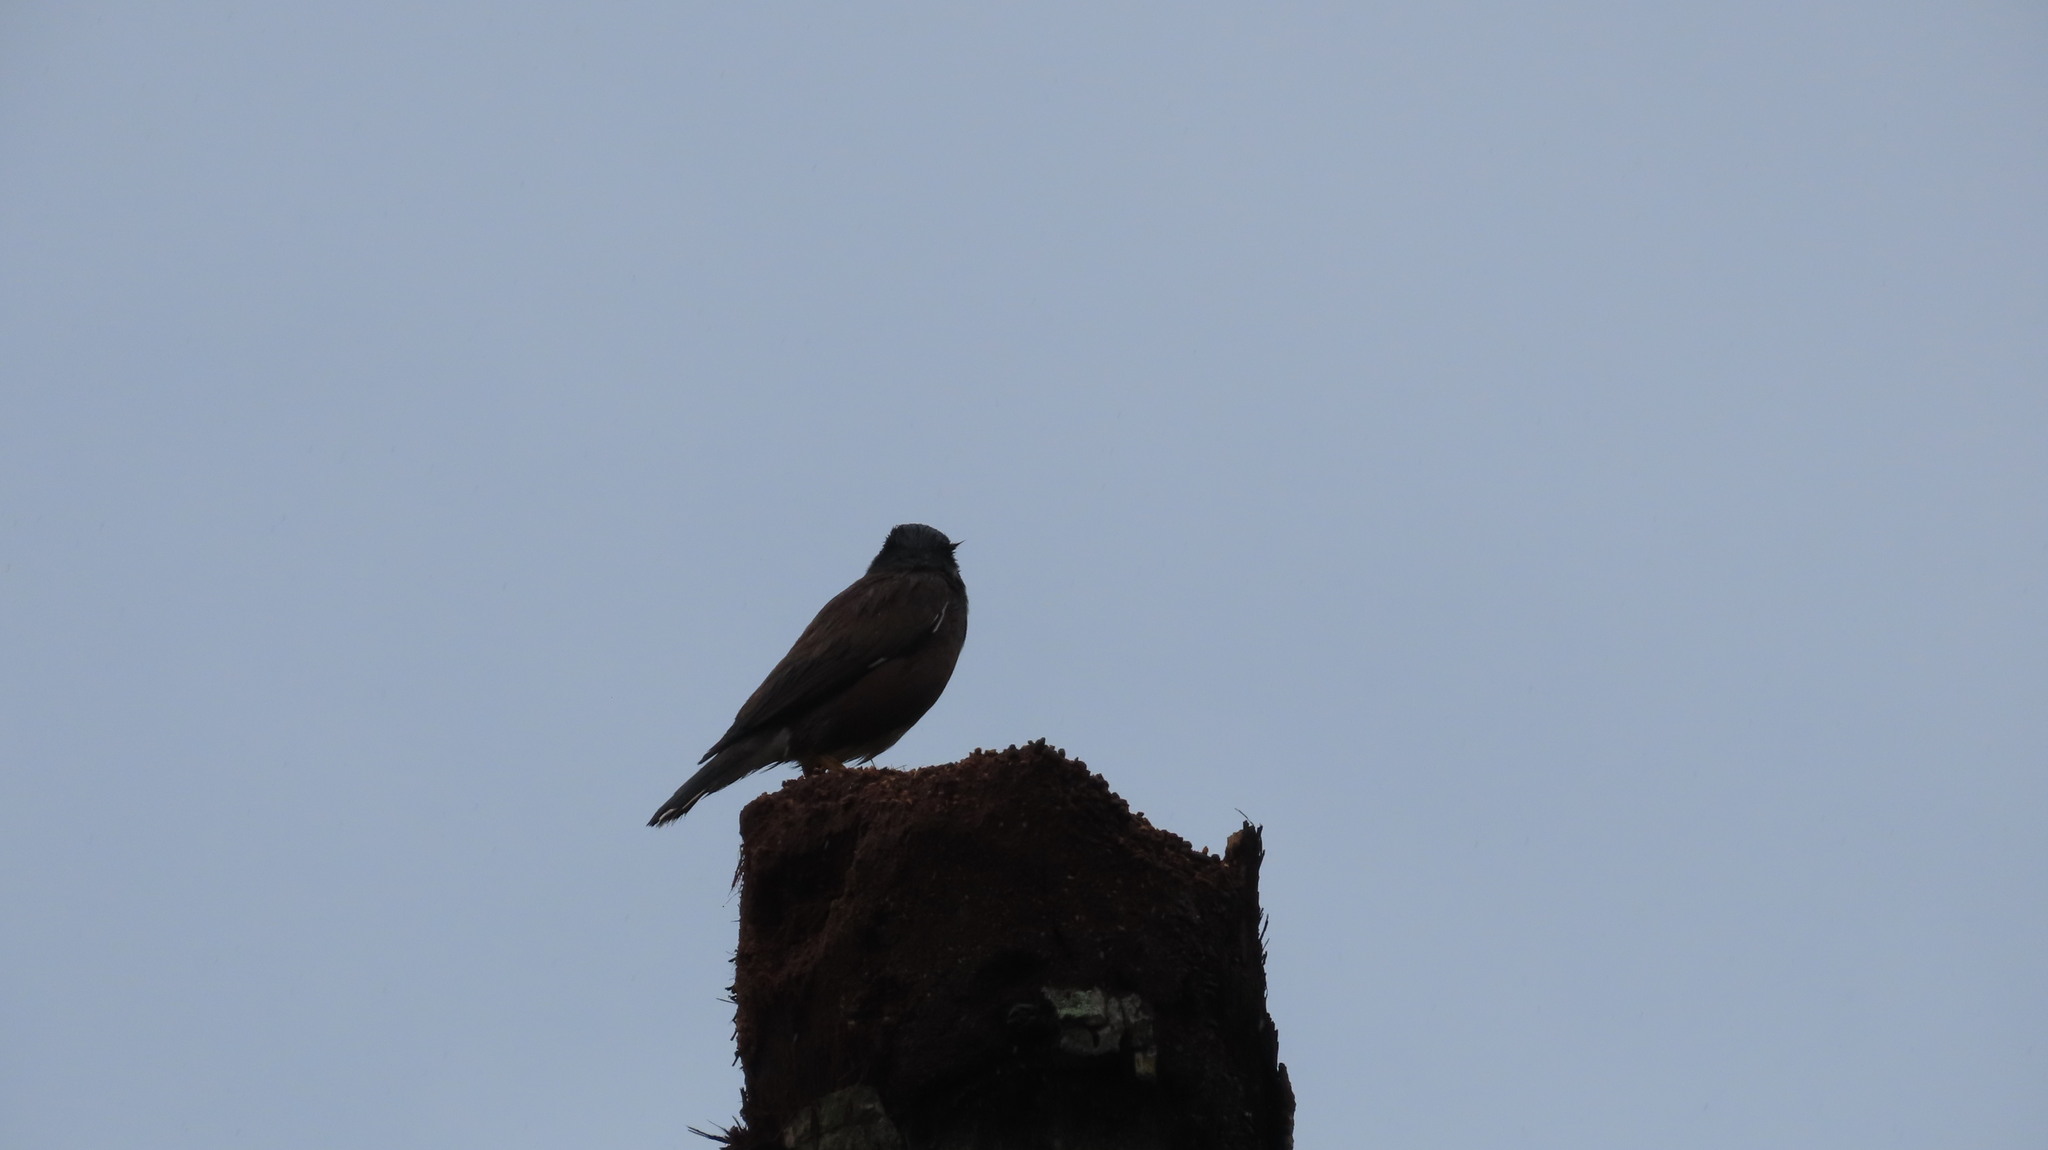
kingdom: Animalia
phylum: Chordata
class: Aves
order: Passeriformes
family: Sturnidae
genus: Acridotheres
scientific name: Acridotheres tristis
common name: Common myna
